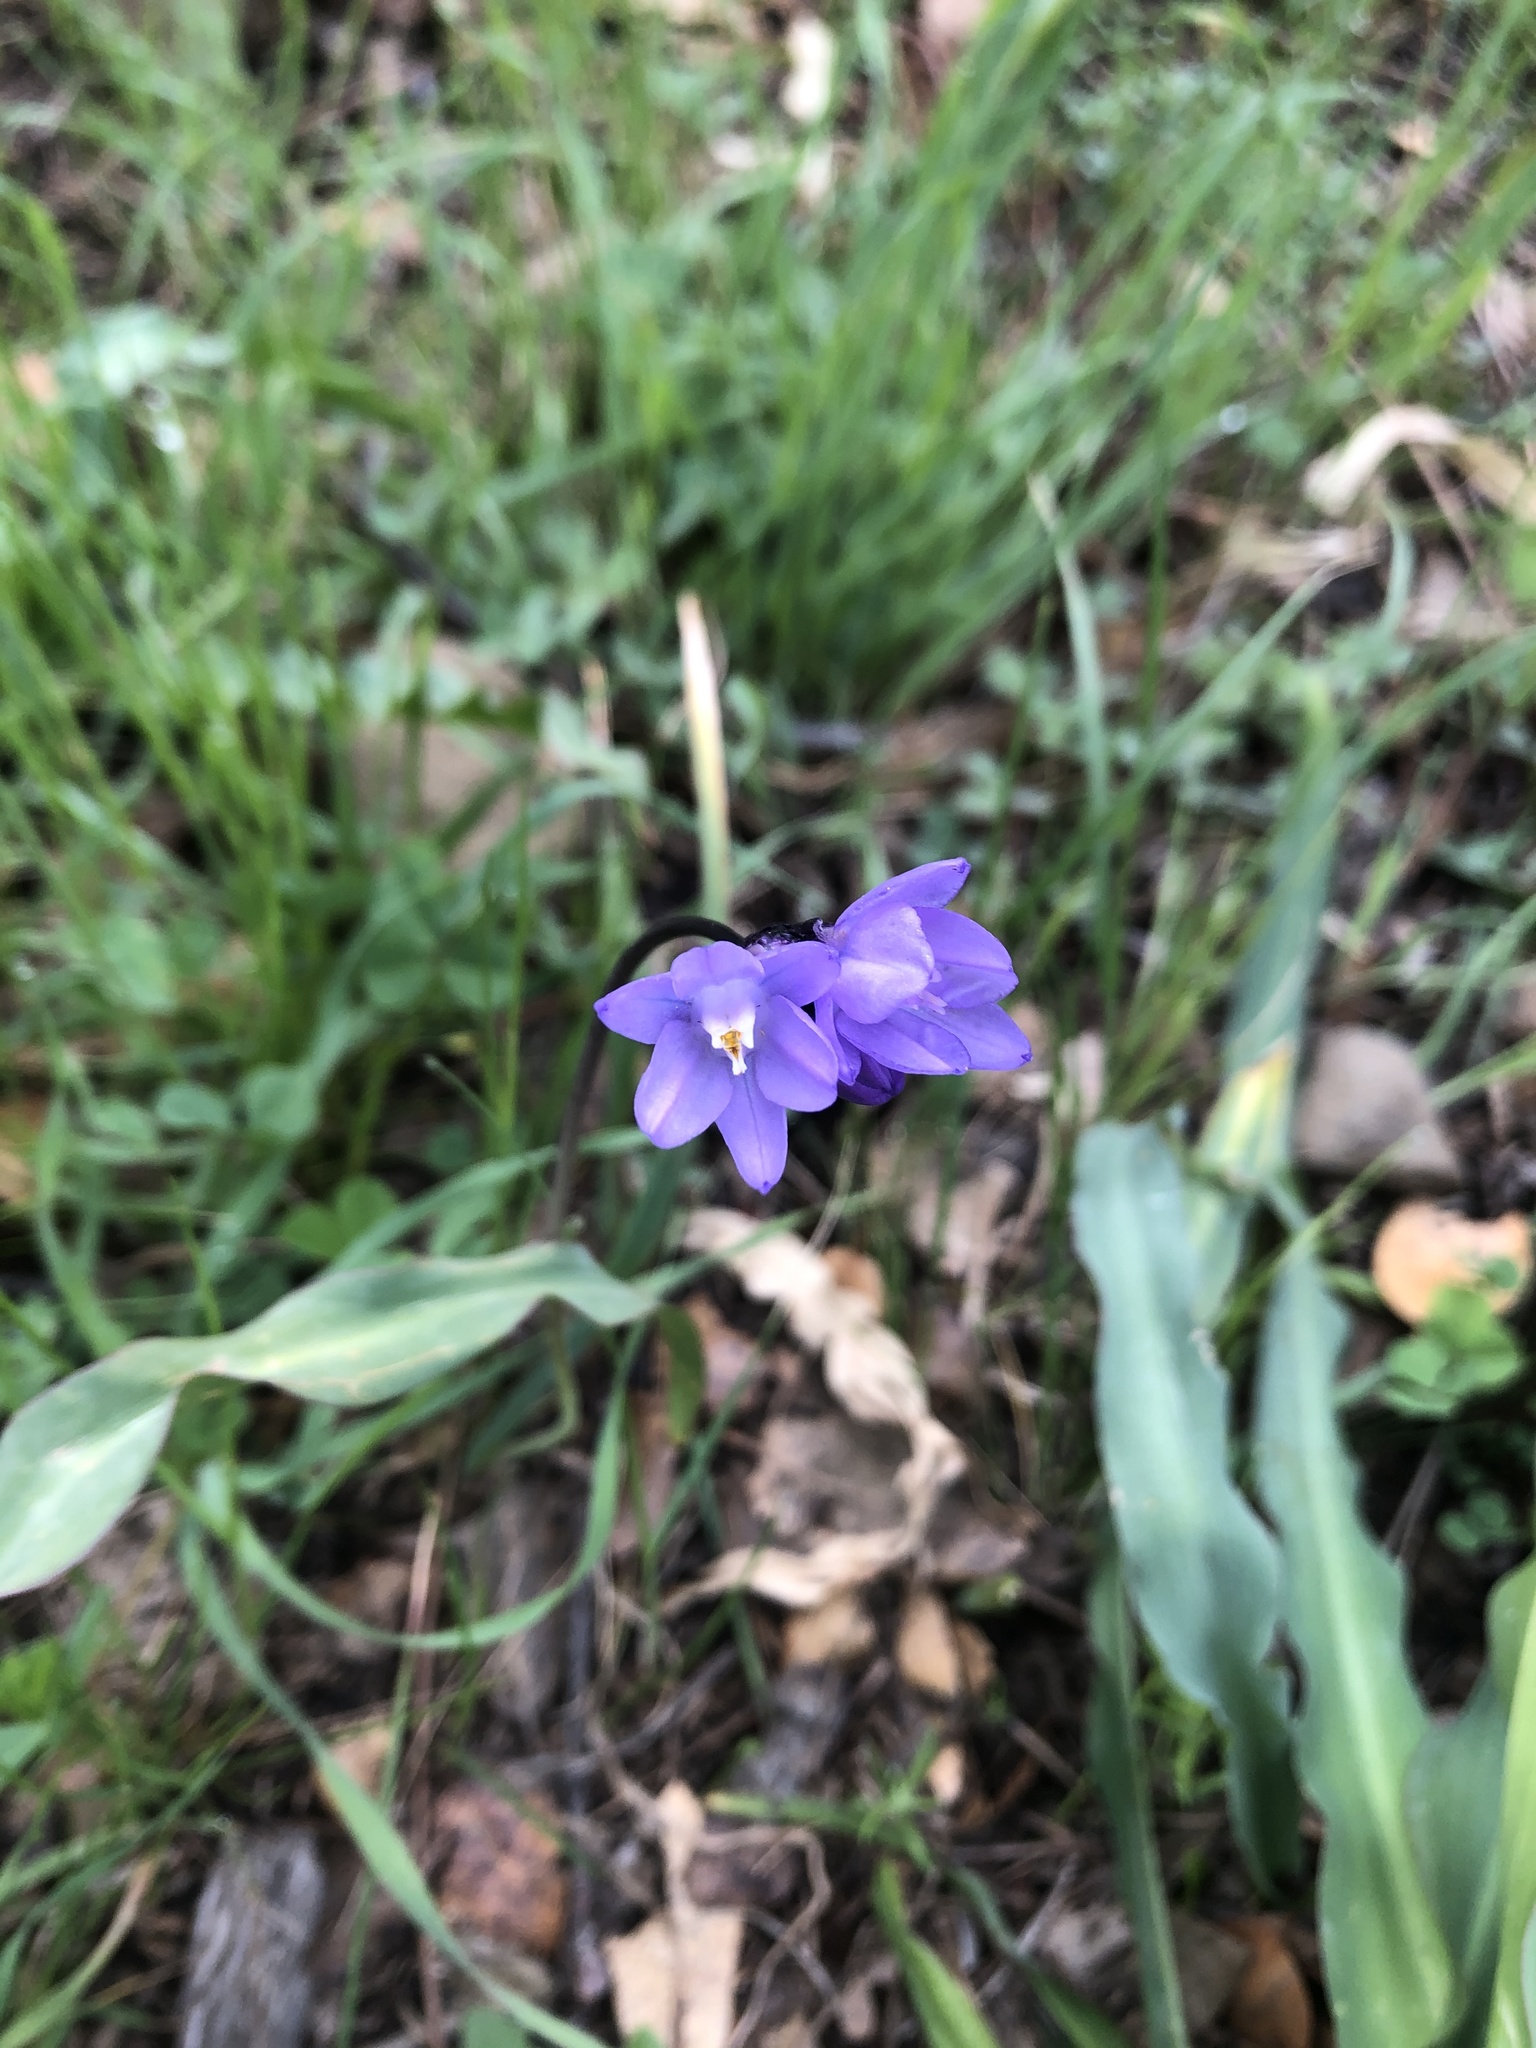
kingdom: Plantae
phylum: Tracheophyta
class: Liliopsida
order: Asparagales
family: Asparagaceae
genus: Dipterostemon
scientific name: Dipterostemon capitatus
